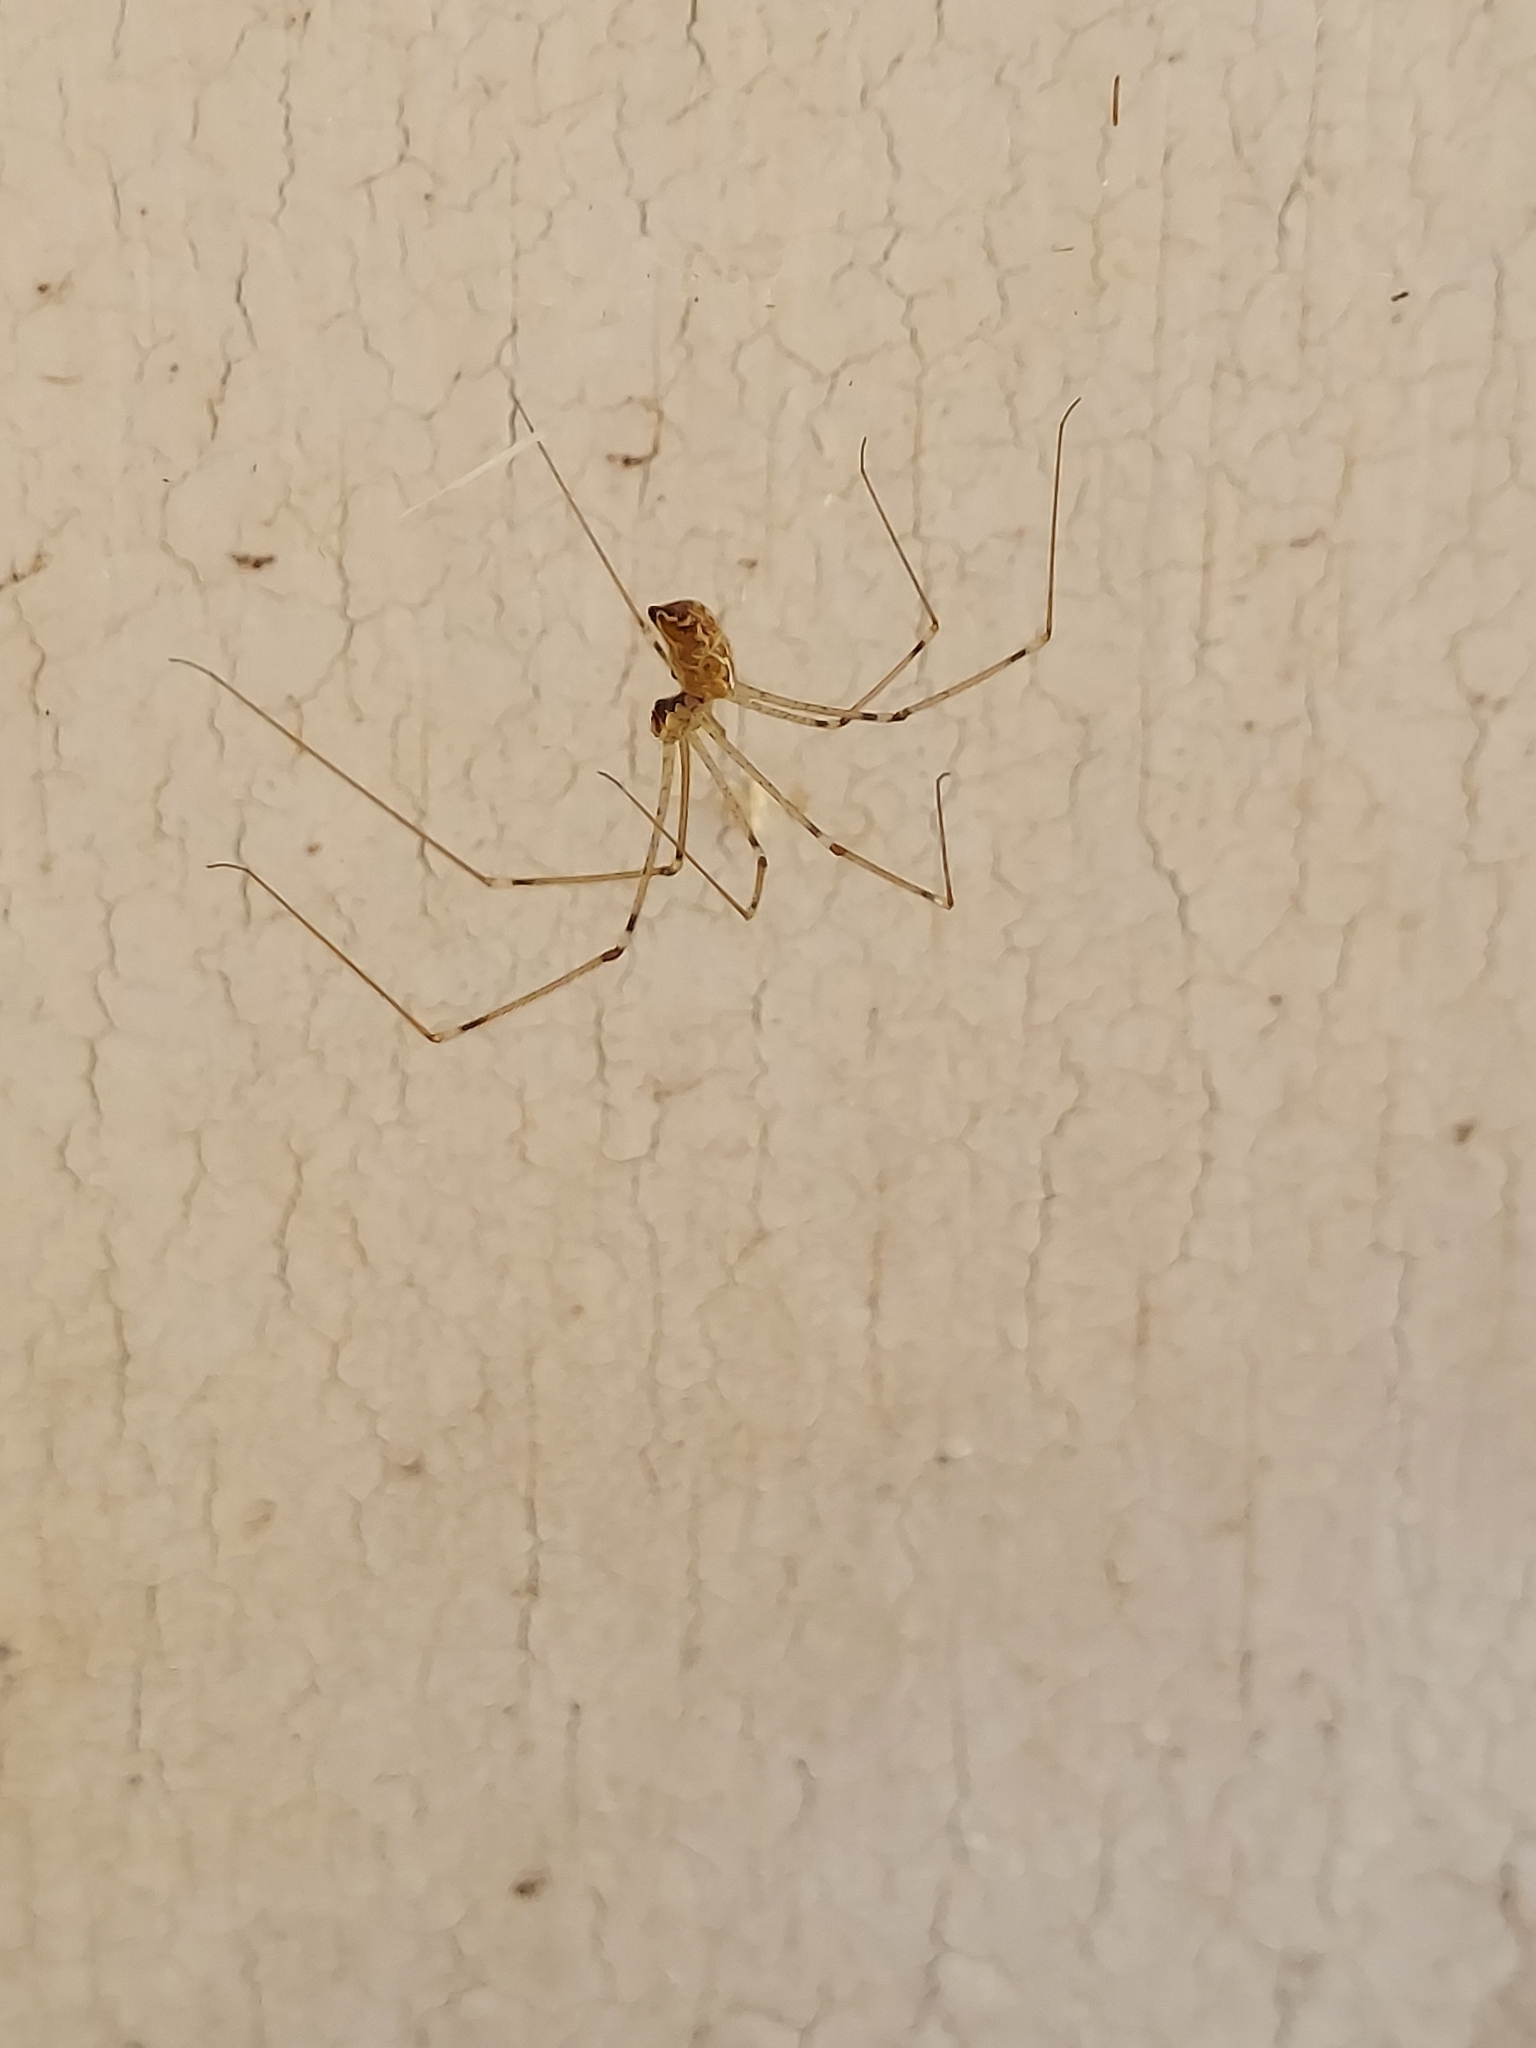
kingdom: Animalia
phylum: Arthropoda
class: Arachnida
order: Araneae
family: Pholcidae
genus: Holocnemus
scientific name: Holocnemus pluchei
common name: Marbled cellar spider
